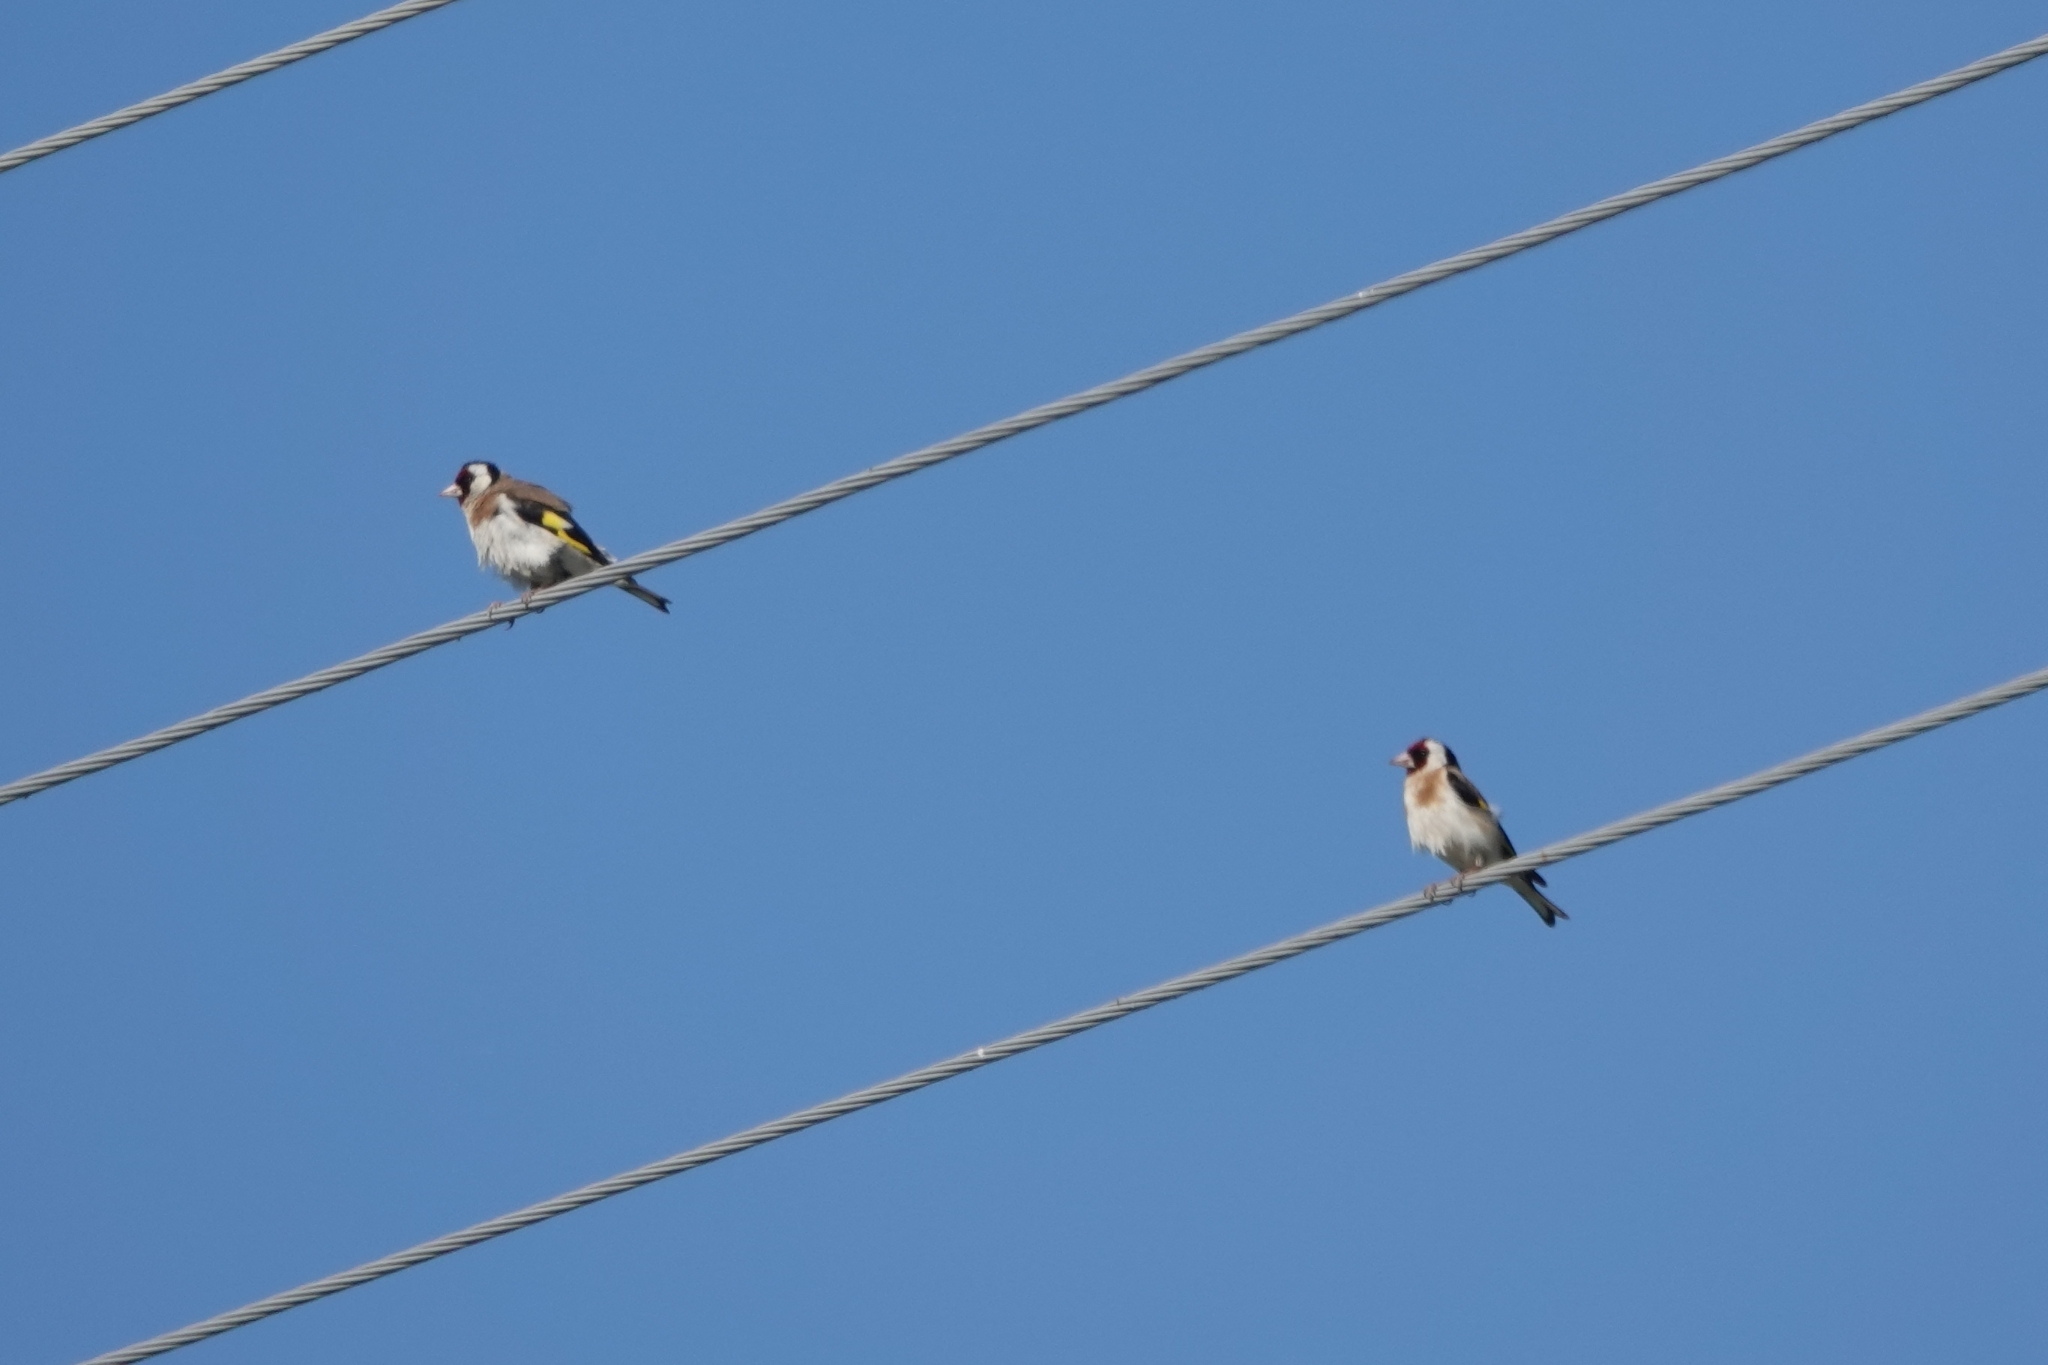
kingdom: Animalia
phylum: Chordata
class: Aves
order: Passeriformes
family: Fringillidae
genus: Carduelis
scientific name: Carduelis carduelis
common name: European goldfinch
